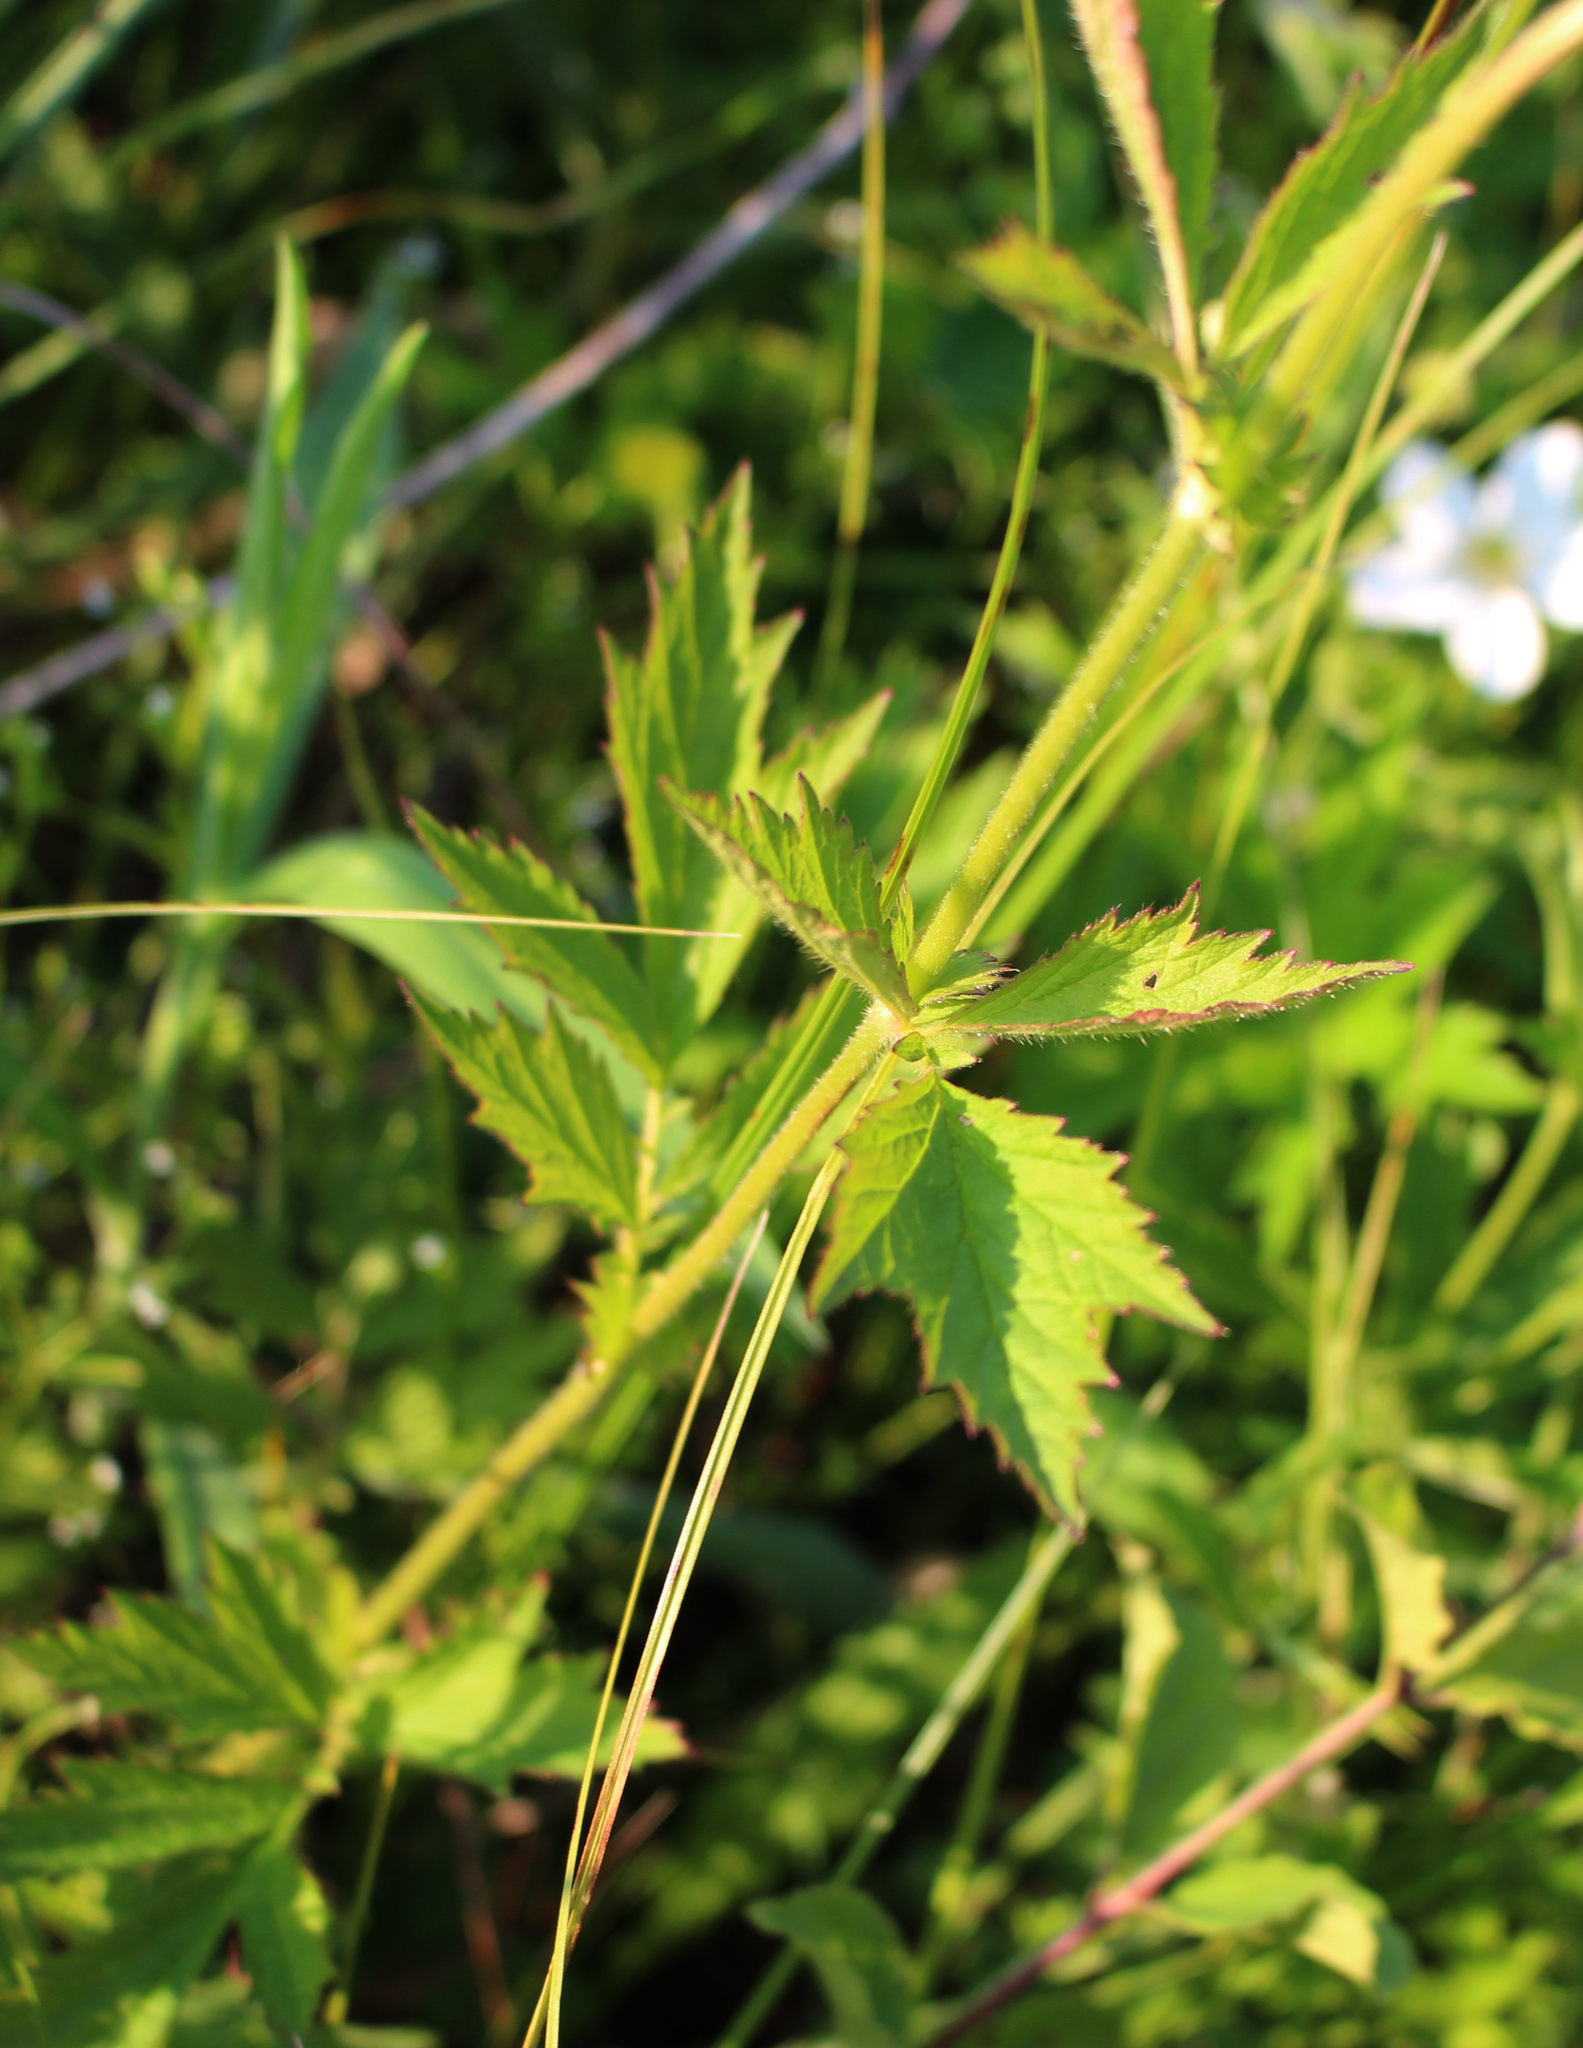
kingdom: Plantae
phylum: Tracheophyta
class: Magnoliopsida
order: Rosales
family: Rosaceae
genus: Geum
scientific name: Geum aleppicum
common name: Yellow avens
